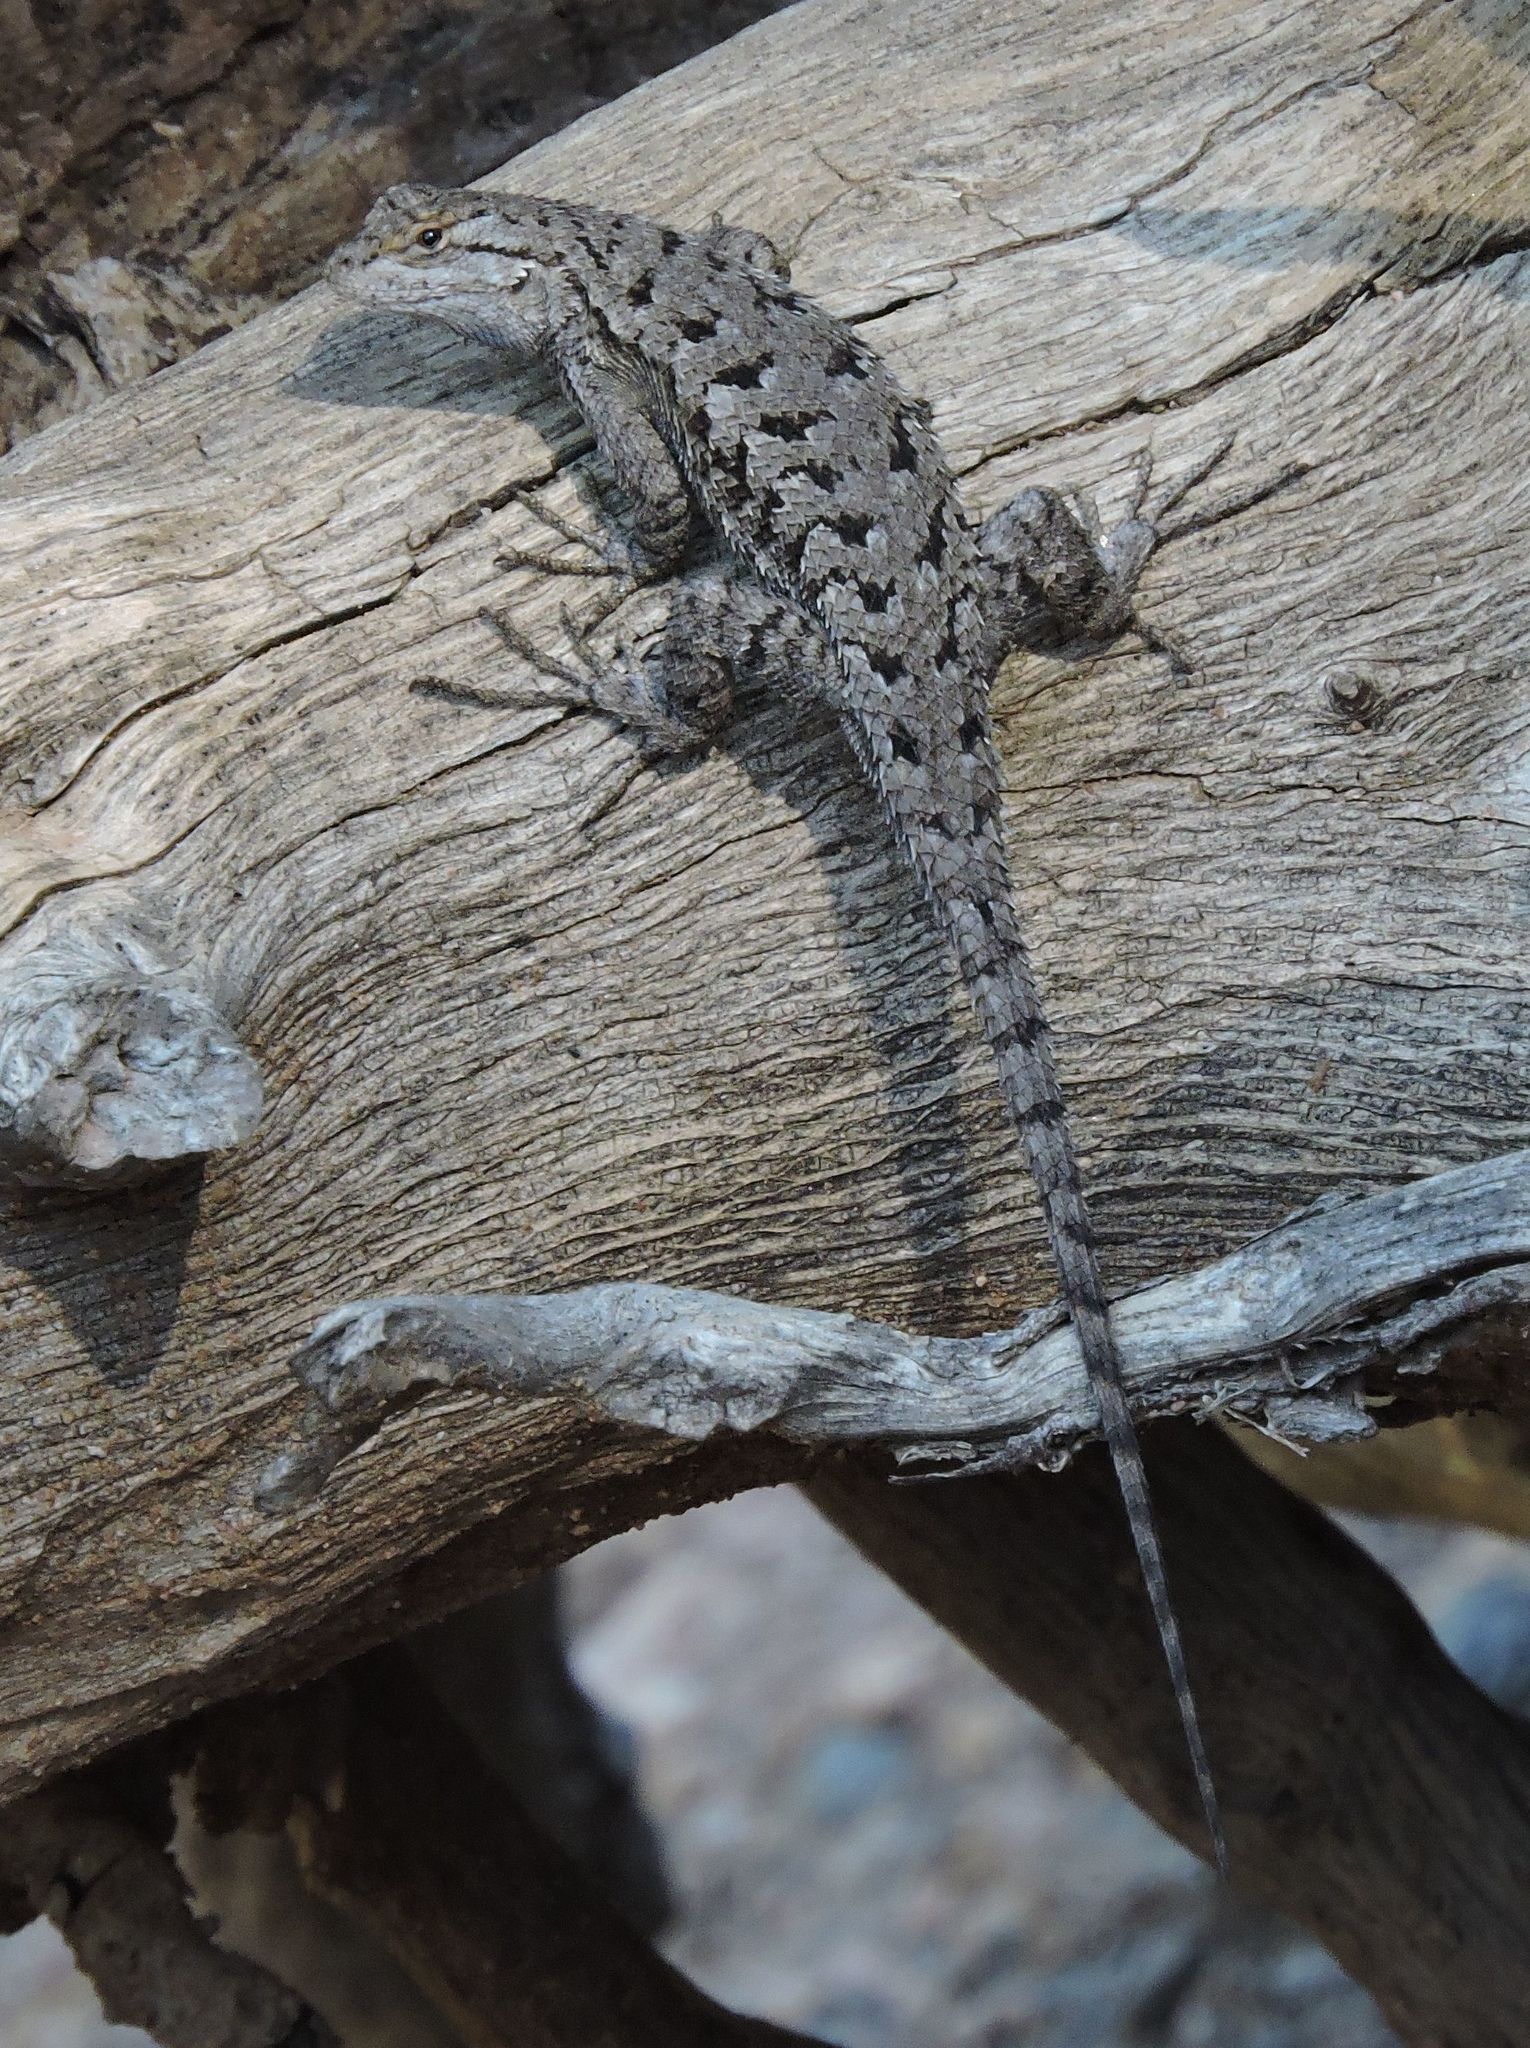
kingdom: Animalia
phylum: Chordata
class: Squamata
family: Phrynosomatidae
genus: Sceloporus
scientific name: Sceloporus occidentalis
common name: Western fence lizard
